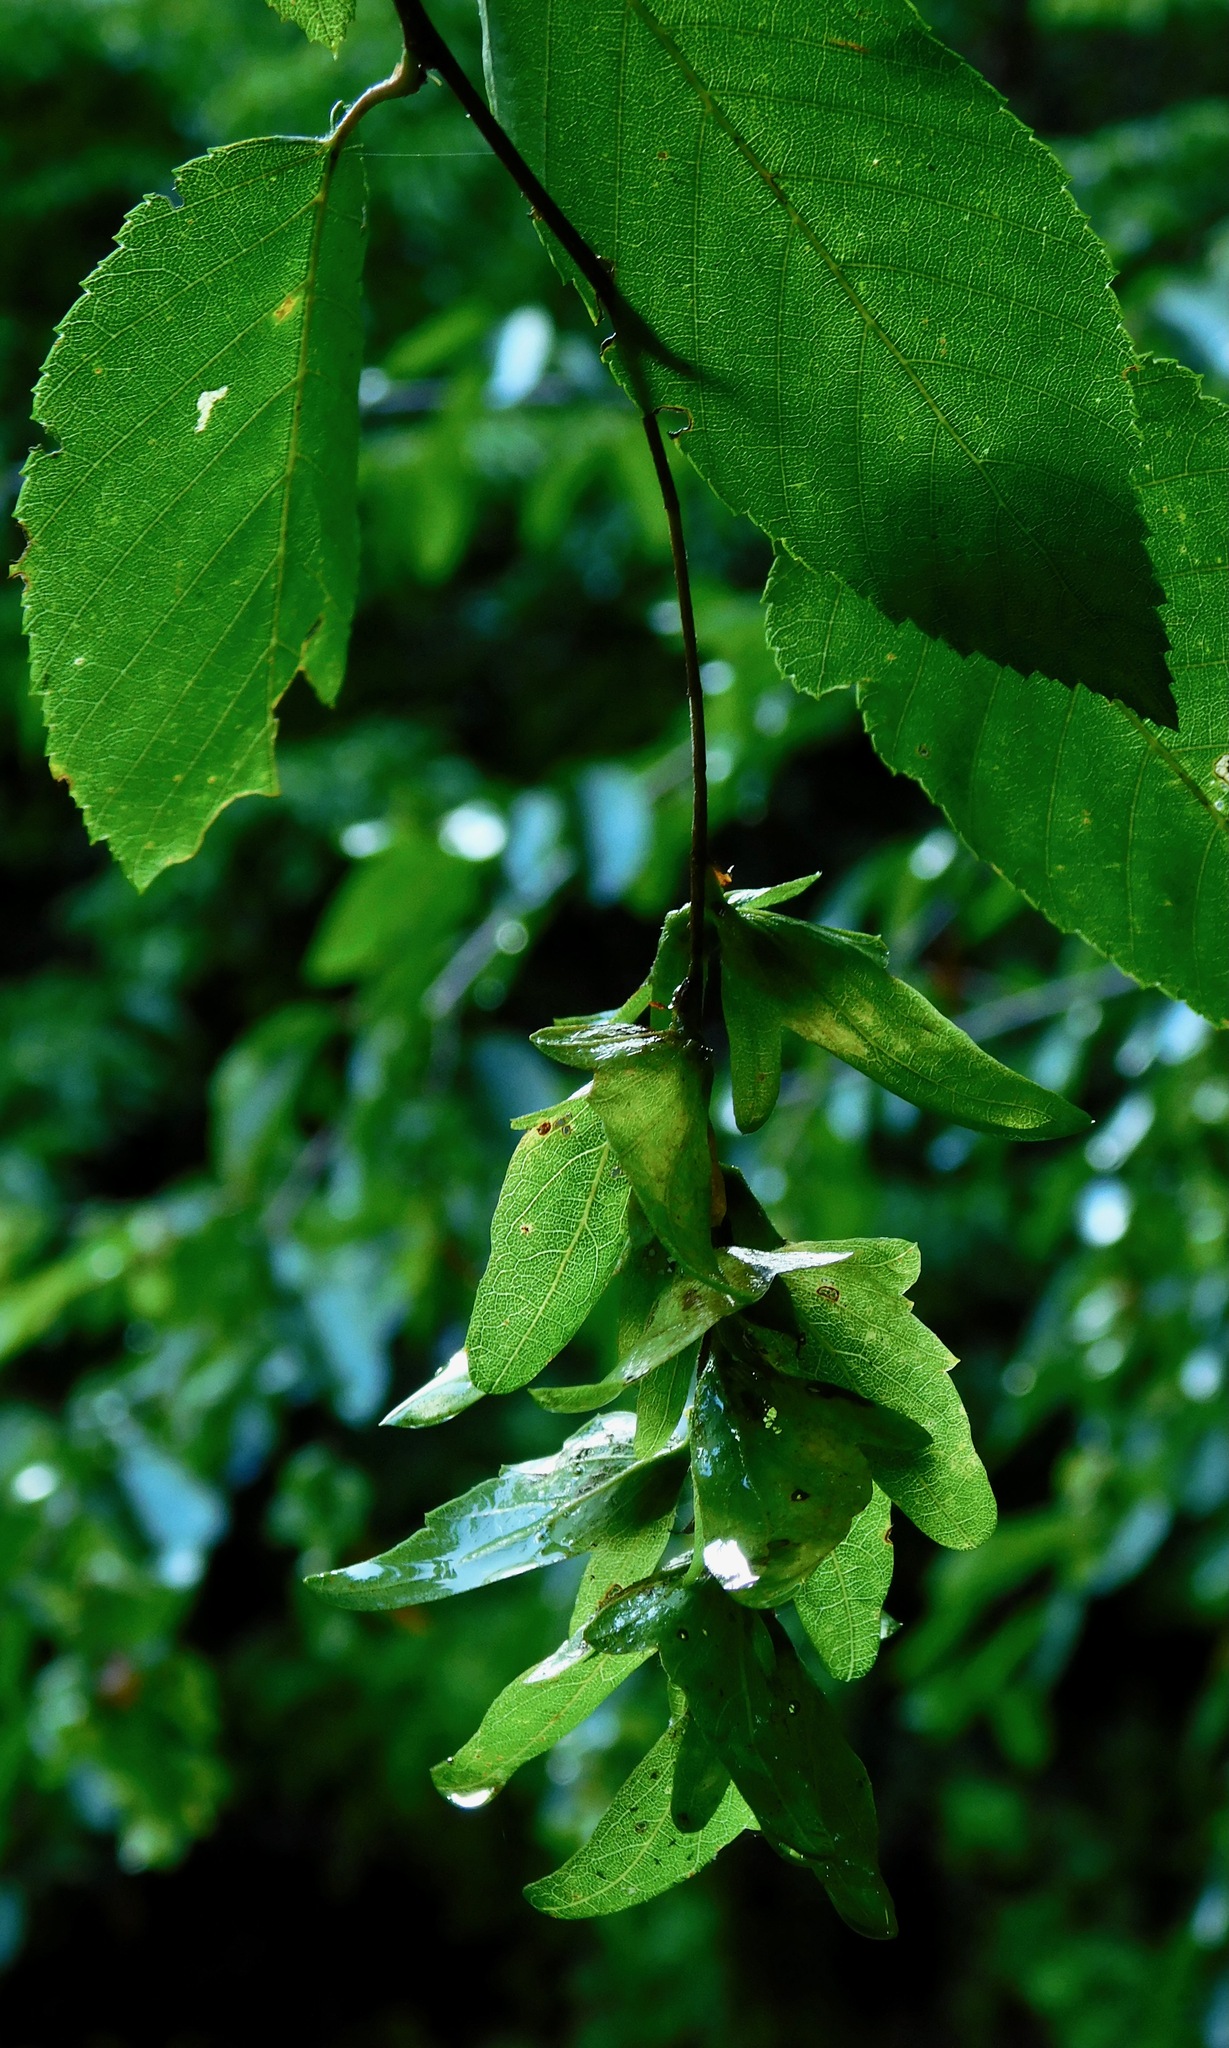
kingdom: Plantae
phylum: Tracheophyta
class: Magnoliopsida
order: Fagales
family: Betulaceae
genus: Carpinus
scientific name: Carpinus caroliniana
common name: American hornbeam
